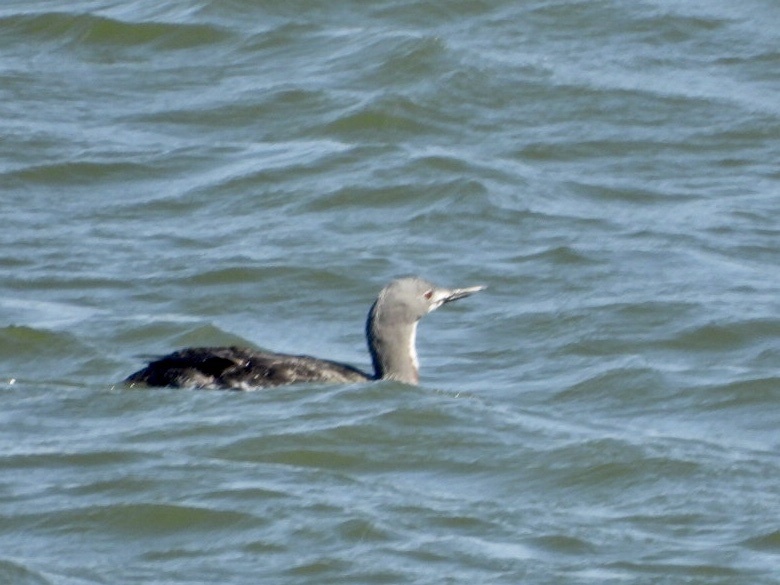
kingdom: Animalia
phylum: Chordata
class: Aves
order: Gaviiformes
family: Gaviidae
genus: Gavia
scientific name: Gavia stellata
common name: Red-throated loon
